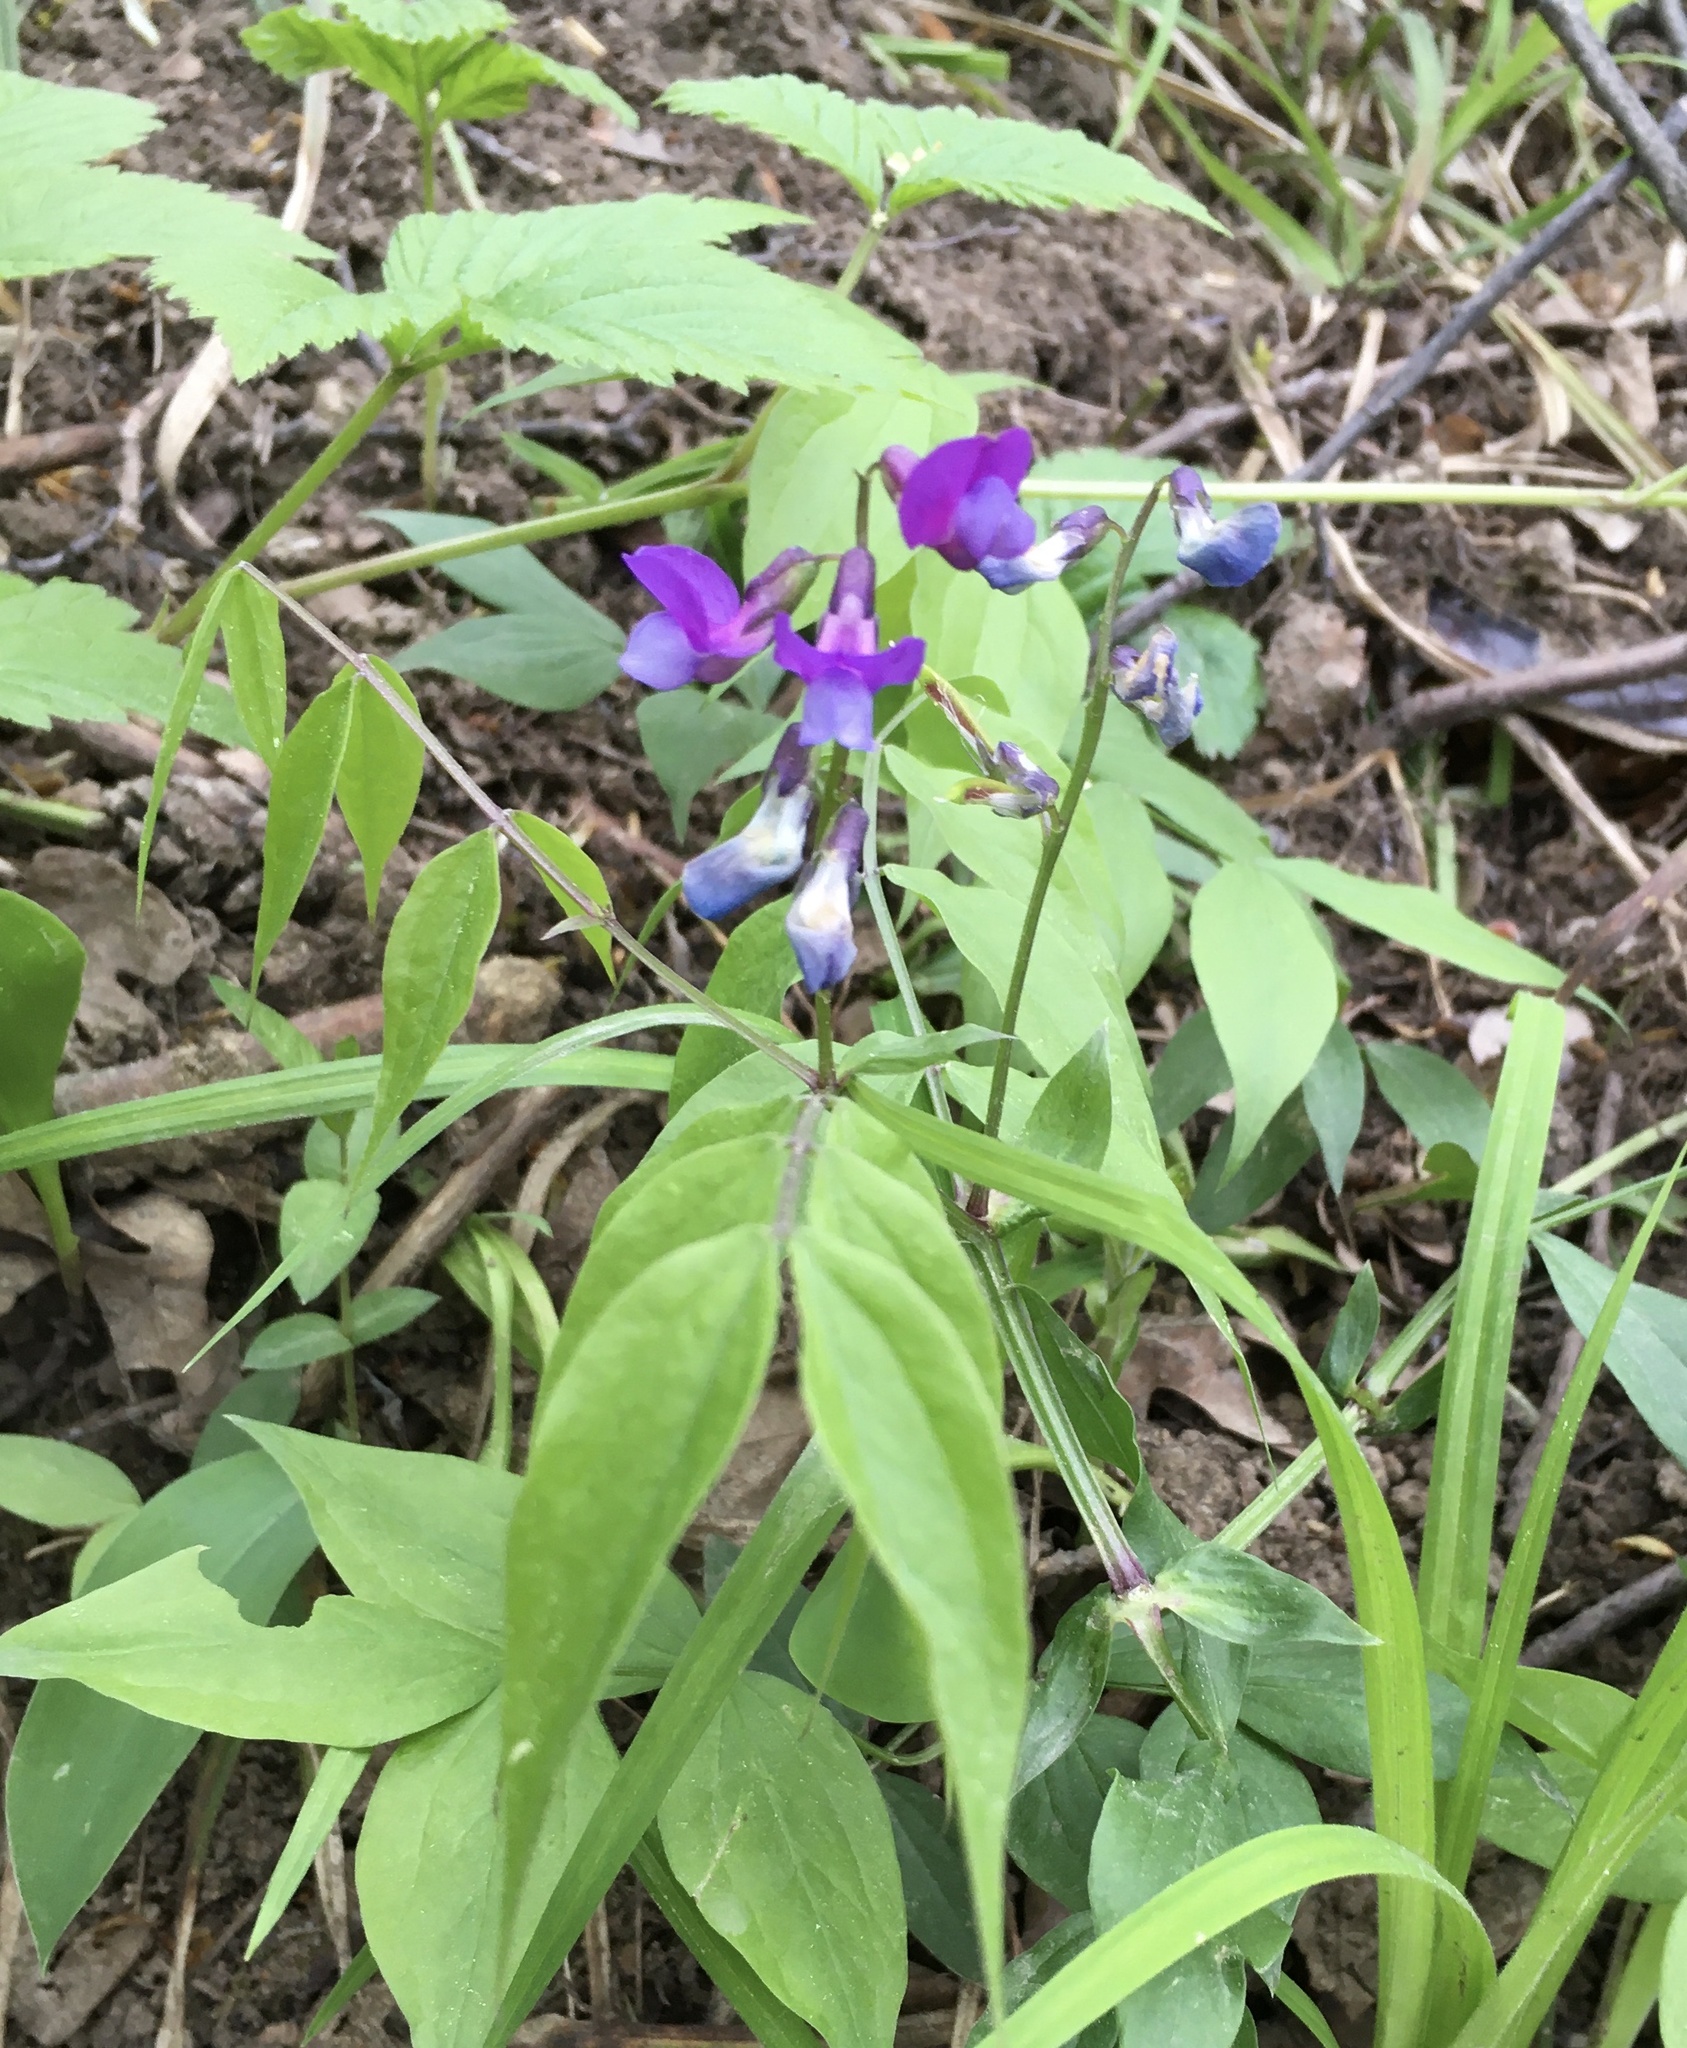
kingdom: Plantae
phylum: Tracheophyta
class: Magnoliopsida
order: Fabales
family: Fabaceae
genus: Lathyrus
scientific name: Lathyrus vernus
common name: Spring pea
